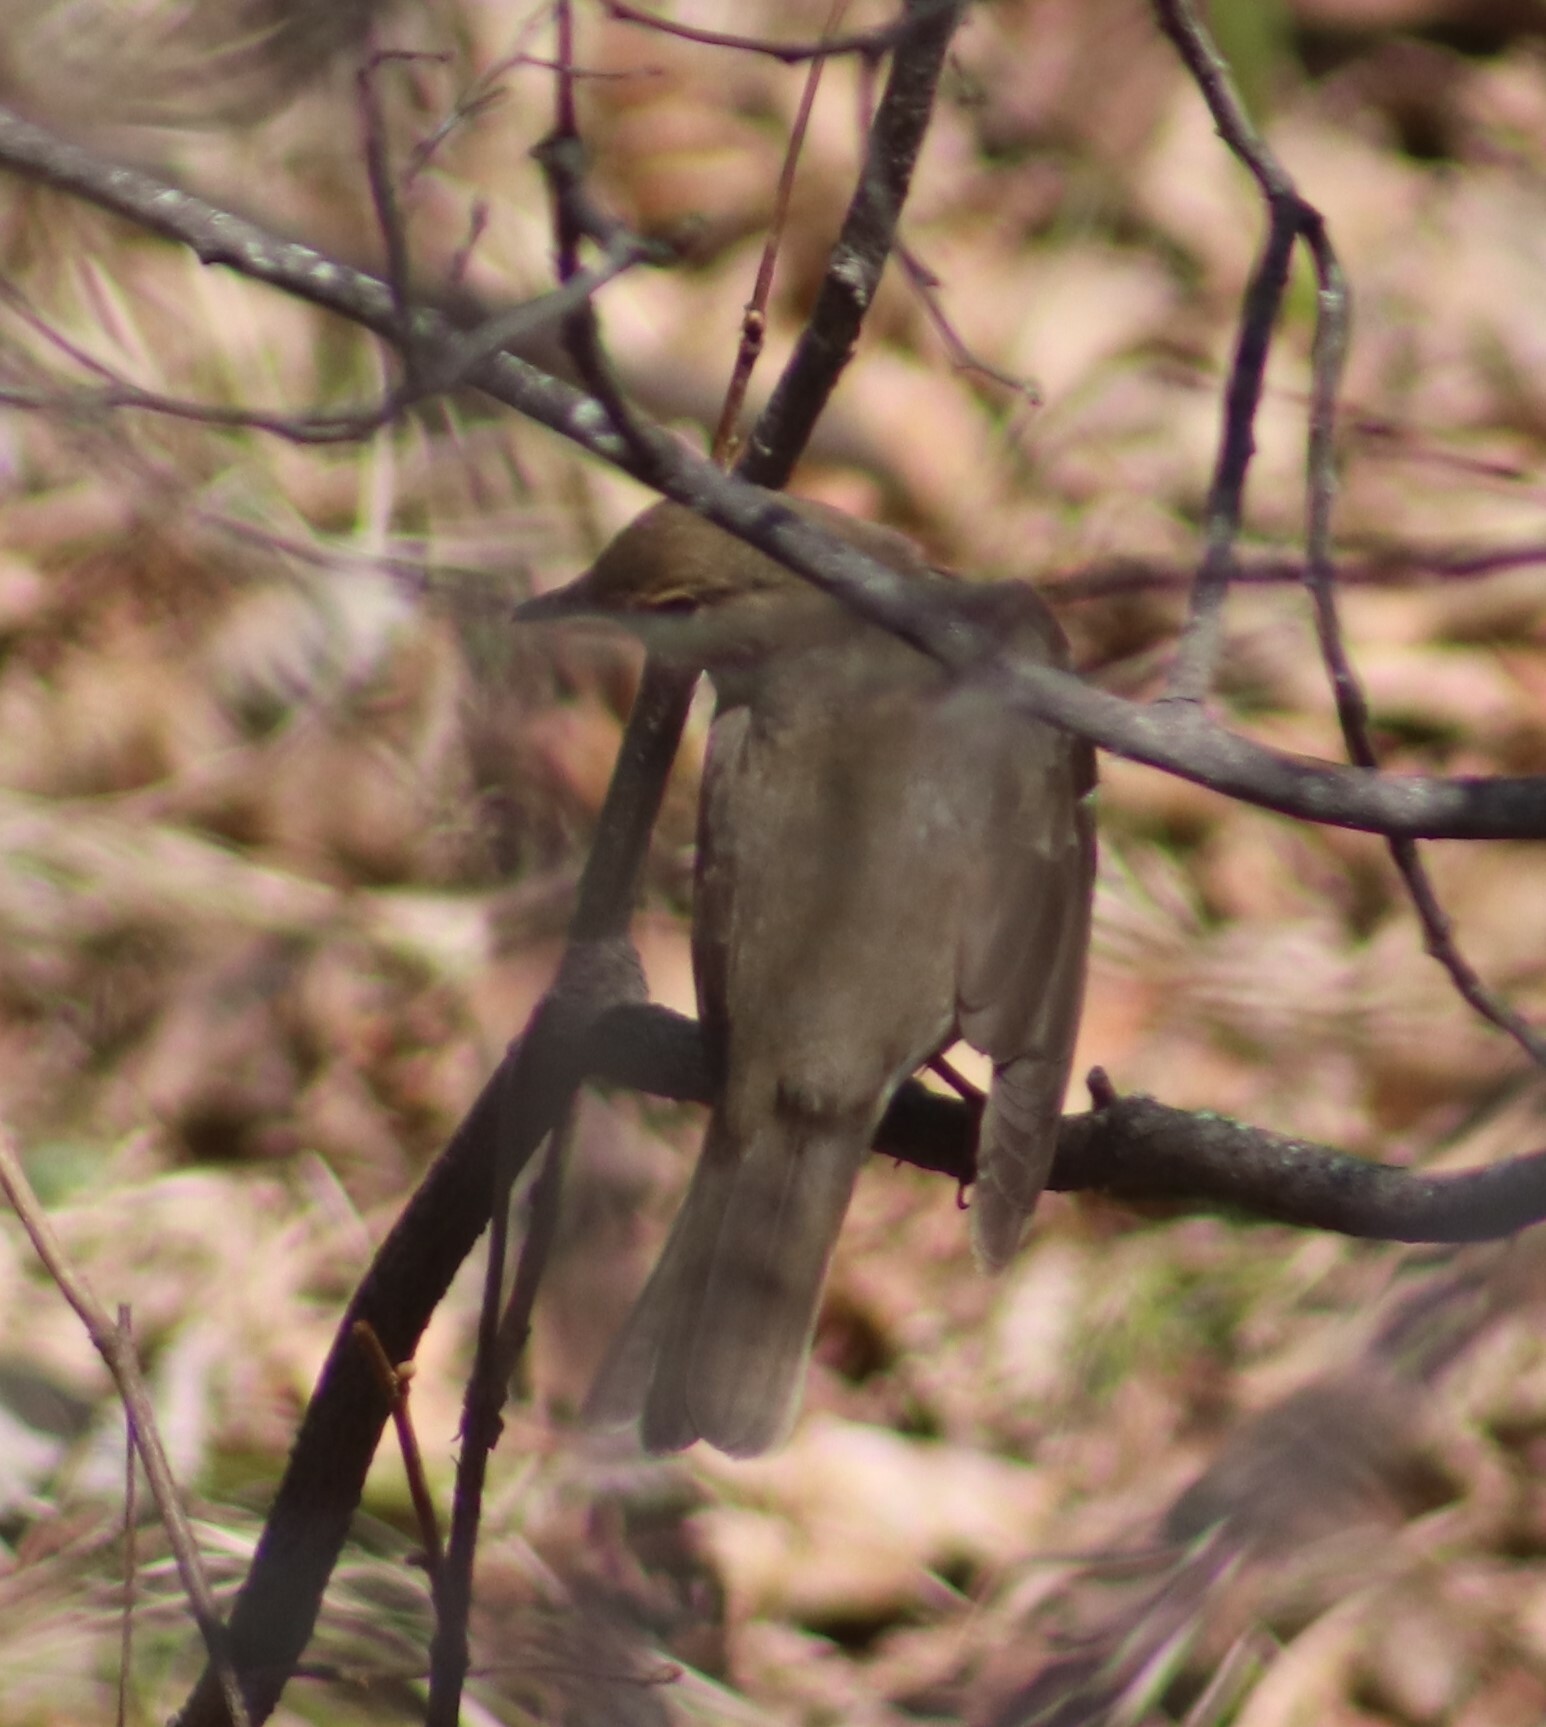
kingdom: Animalia
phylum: Chordata
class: Aves
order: Passeriformes
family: Turdidae
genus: Catharus
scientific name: Catharus ustulatus
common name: Swainson's thrush
